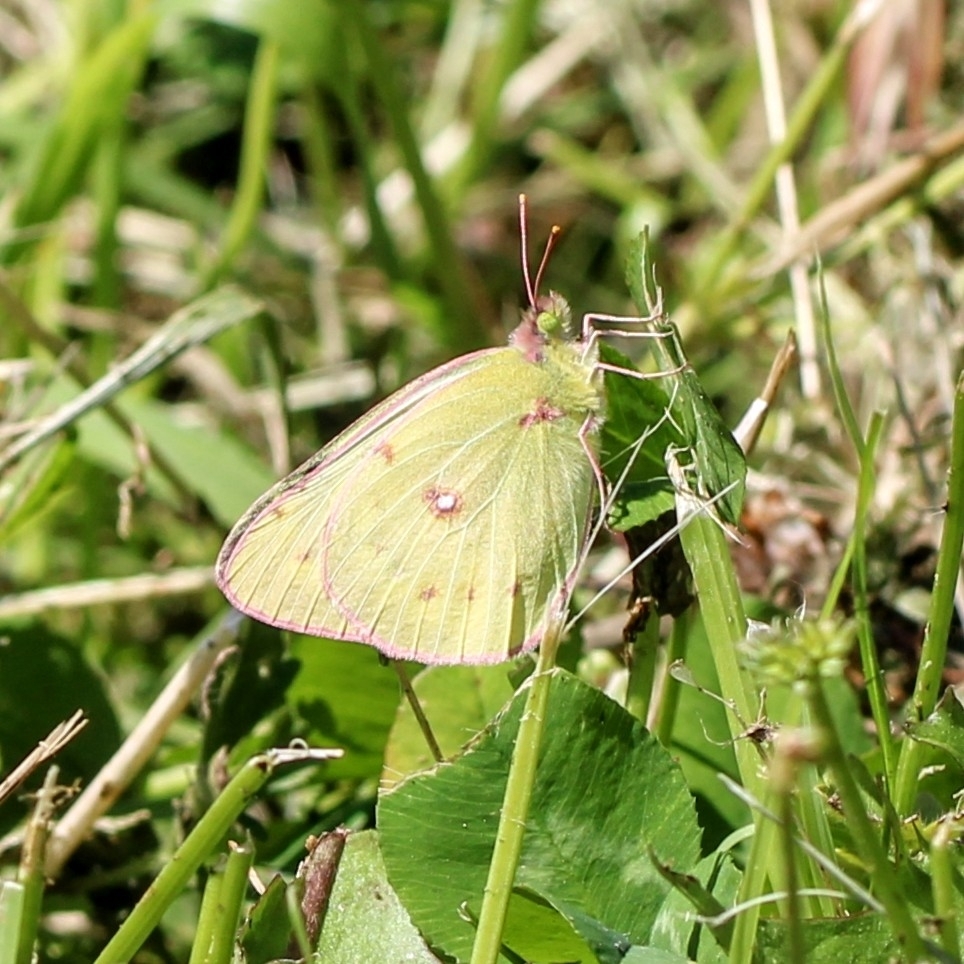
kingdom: Animalia
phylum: Arthropoda
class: Insecta
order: Lepidoptera
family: Pieridae
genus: Colias
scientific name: Colias philodice
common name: Clouded sulphur
